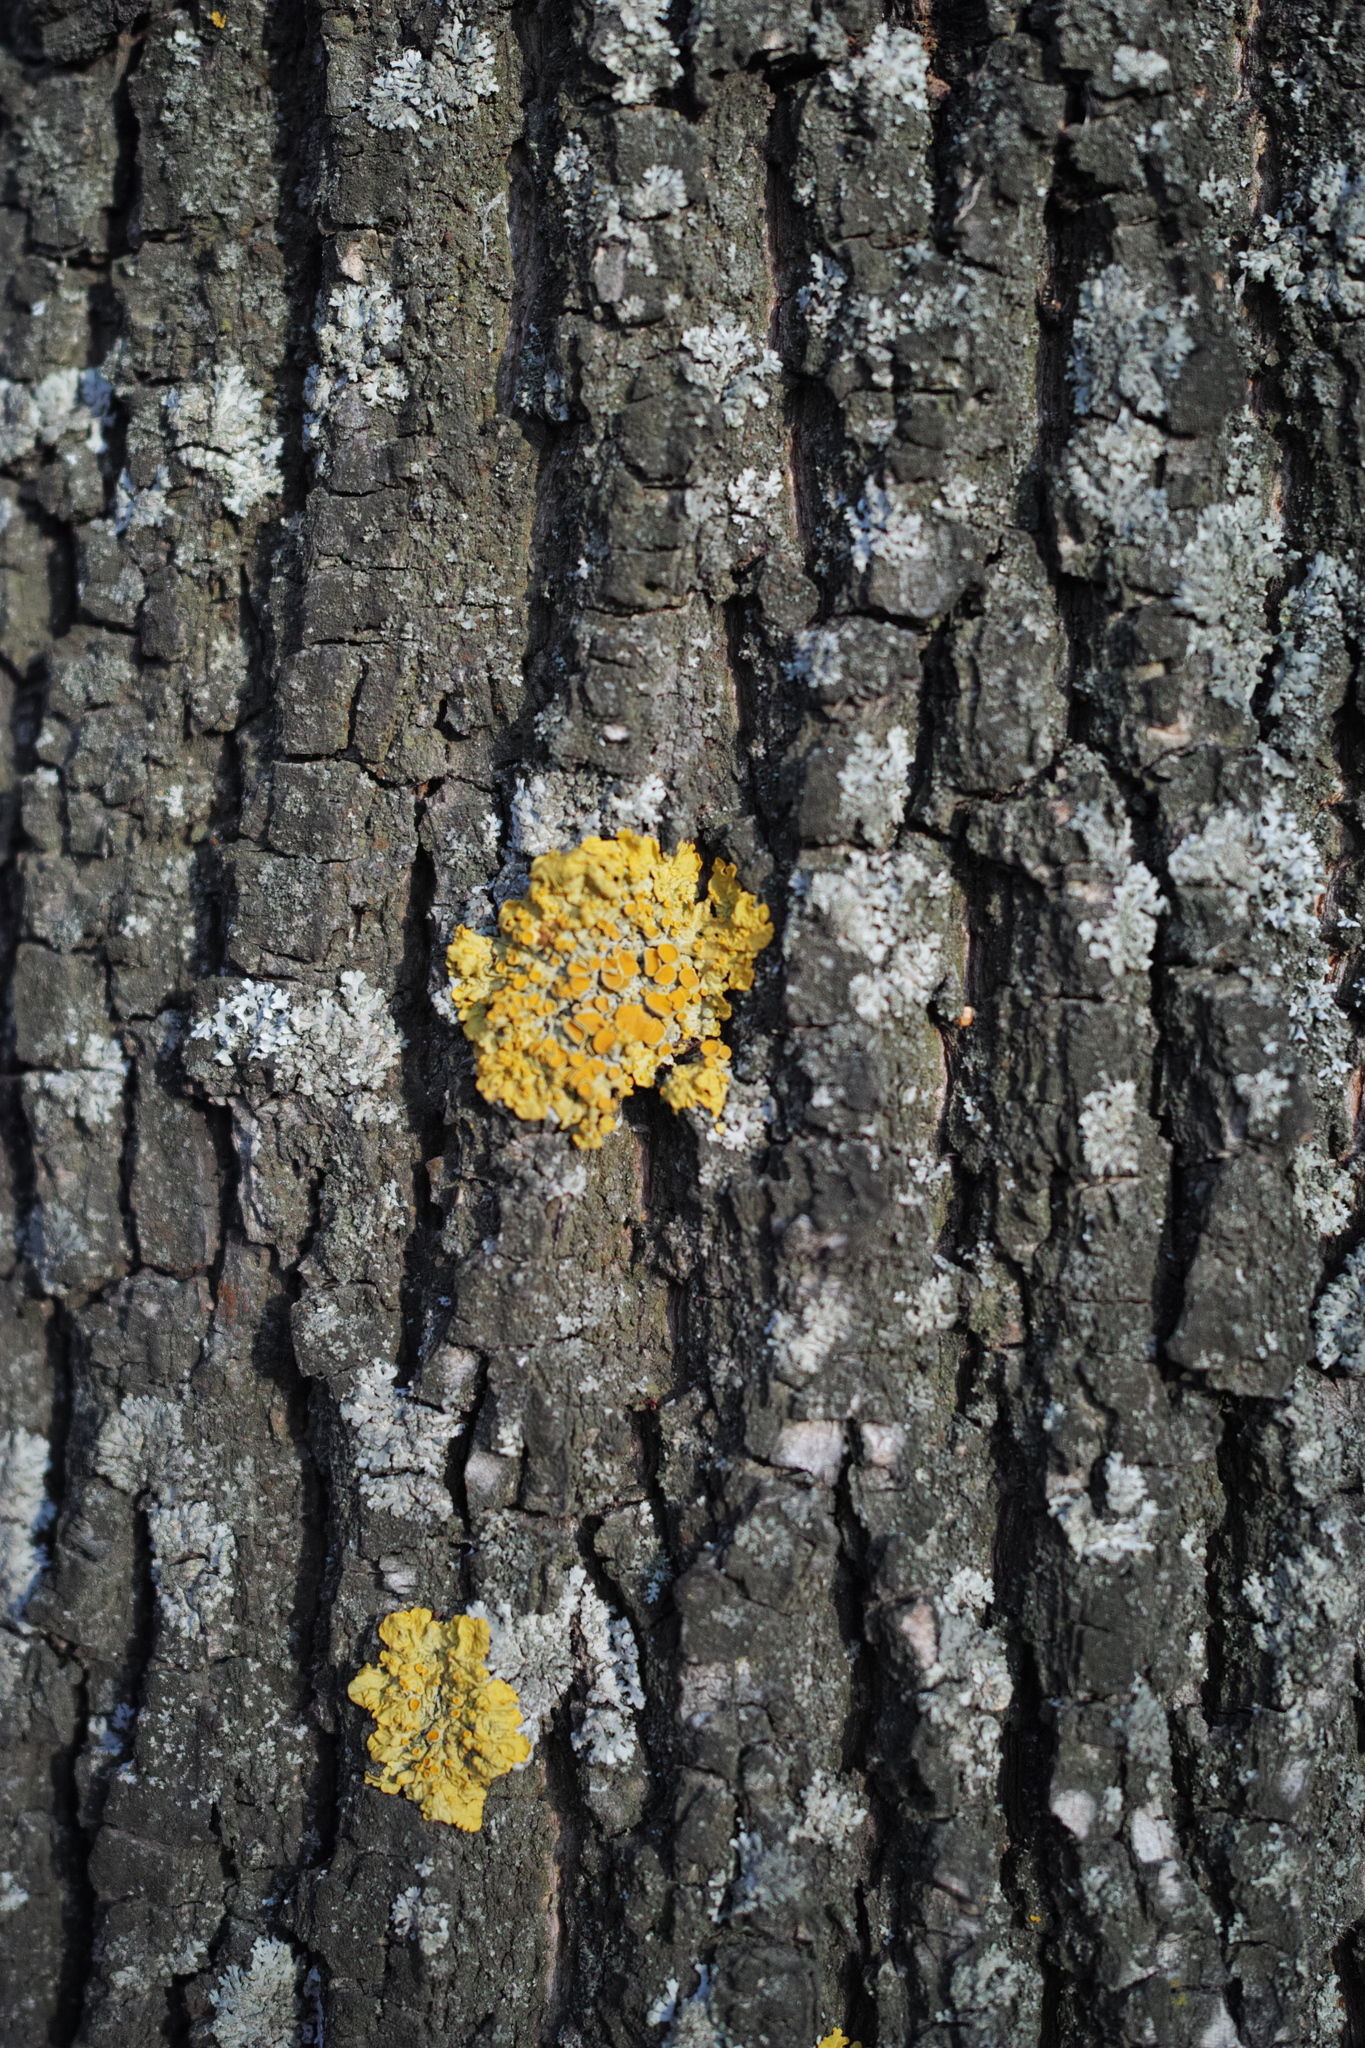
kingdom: Fungi
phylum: Ascomycota
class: Lecanoromycetes
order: Teloschistales
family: Teloschistaceae
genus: Xanthoria
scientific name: Xanthoria parietina
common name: Common orange lichen
